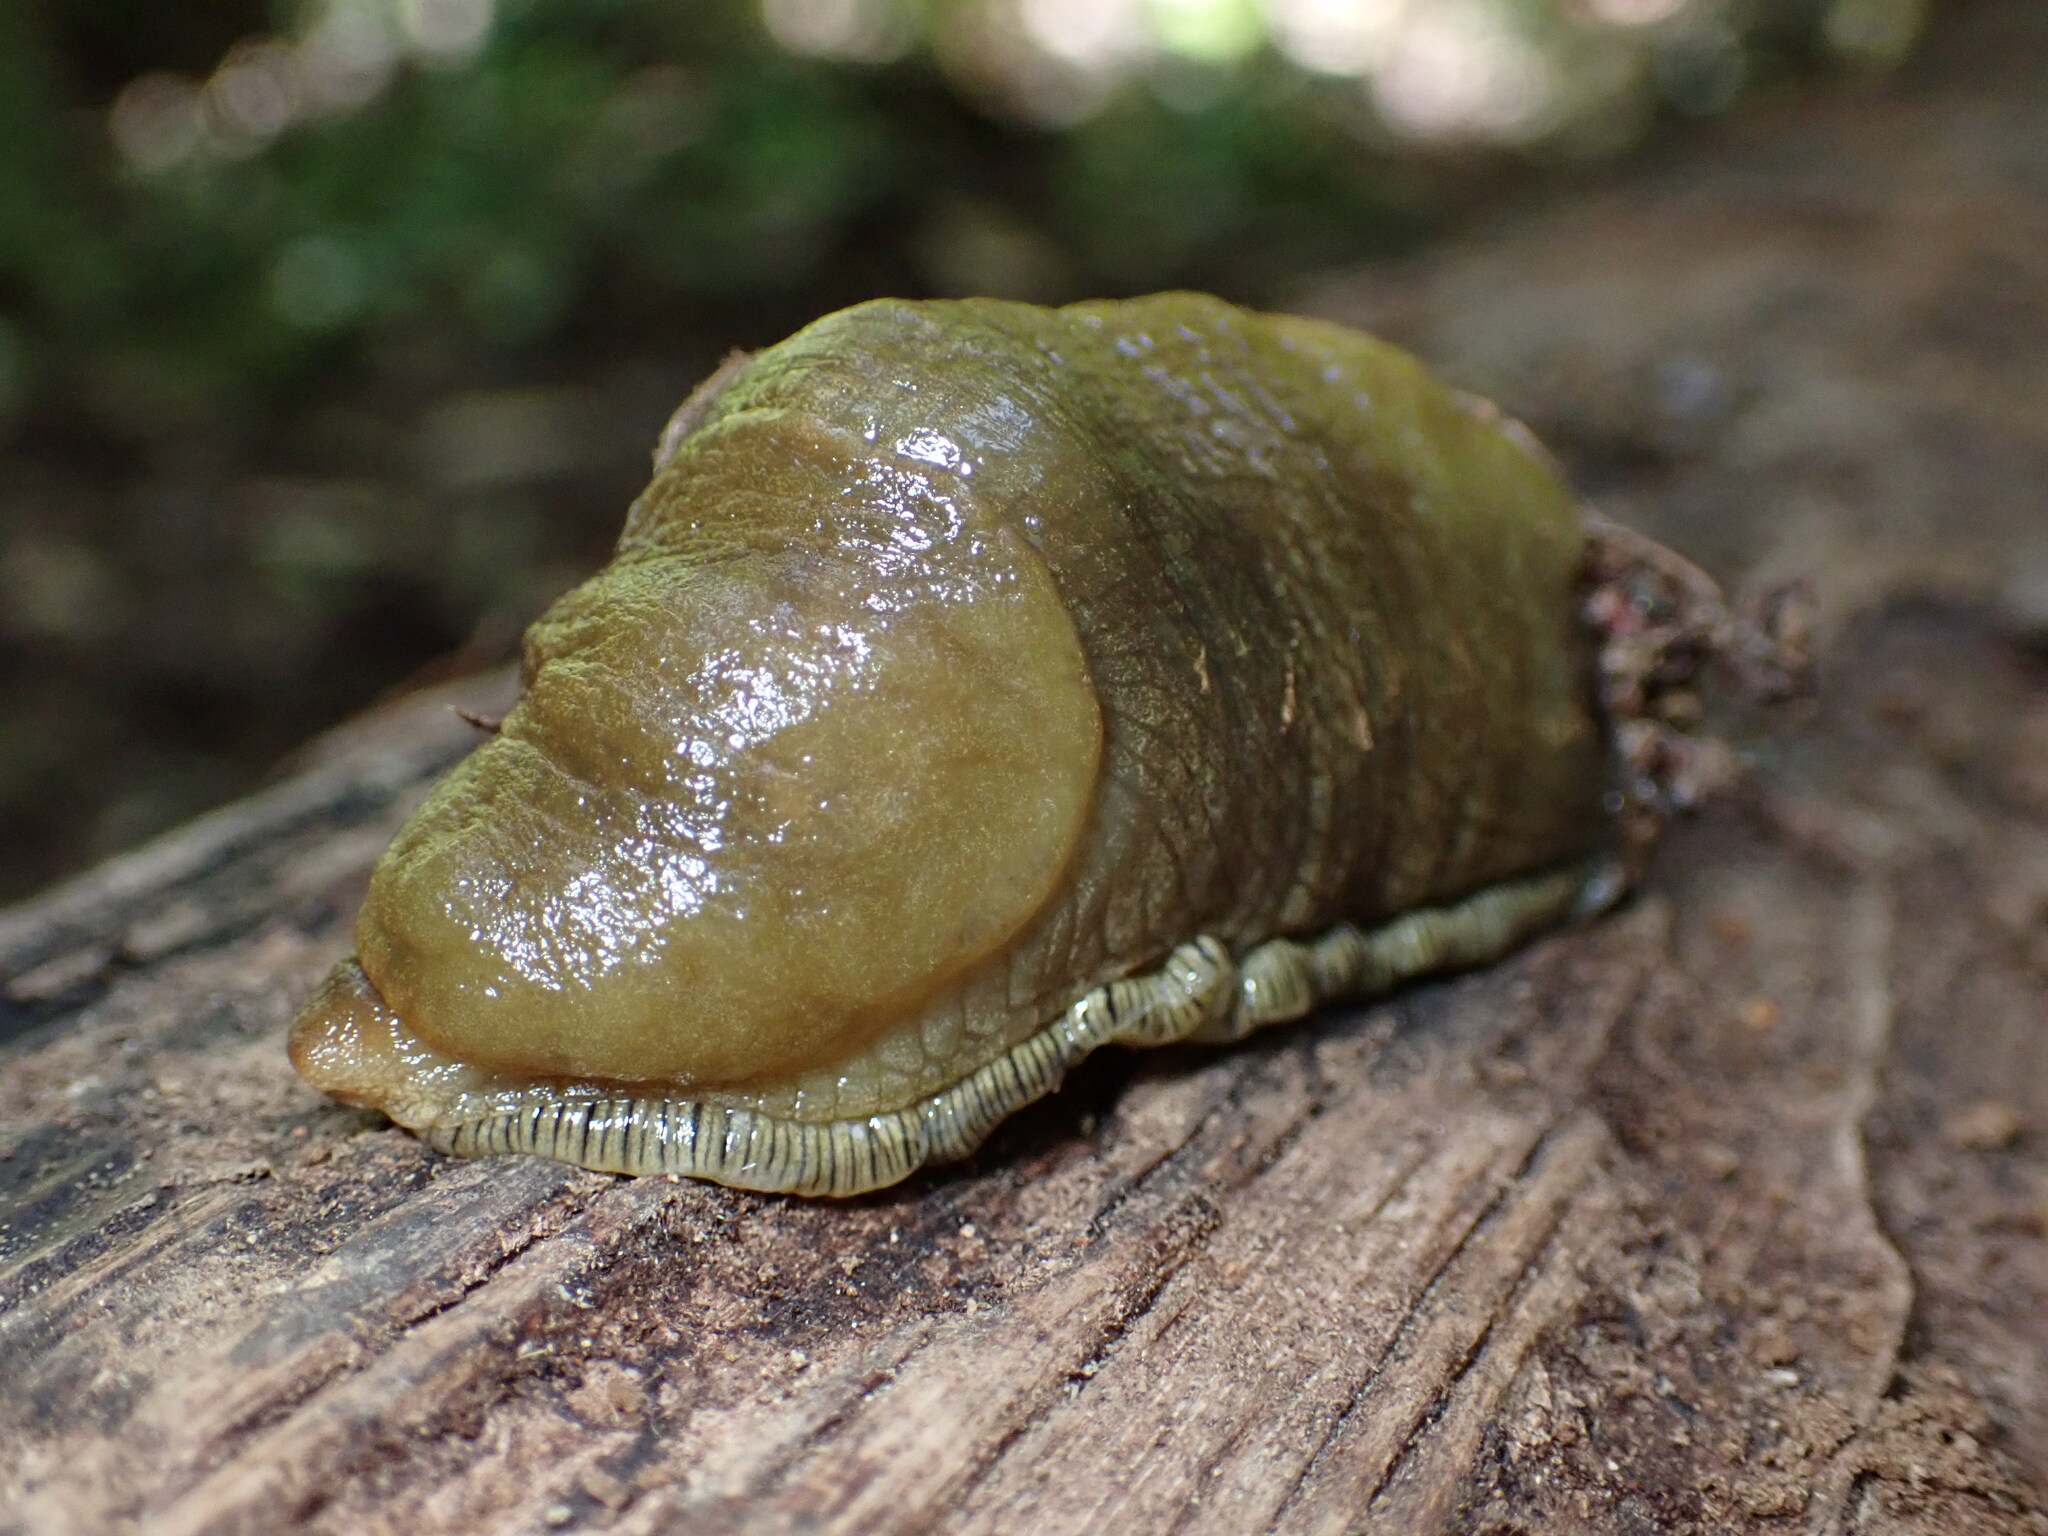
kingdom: Animalia
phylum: Mollusca
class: Gastropoda
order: Stylommatophora
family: Ariolimacidae
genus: Ariolimax
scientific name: Ariolimax buttoni
